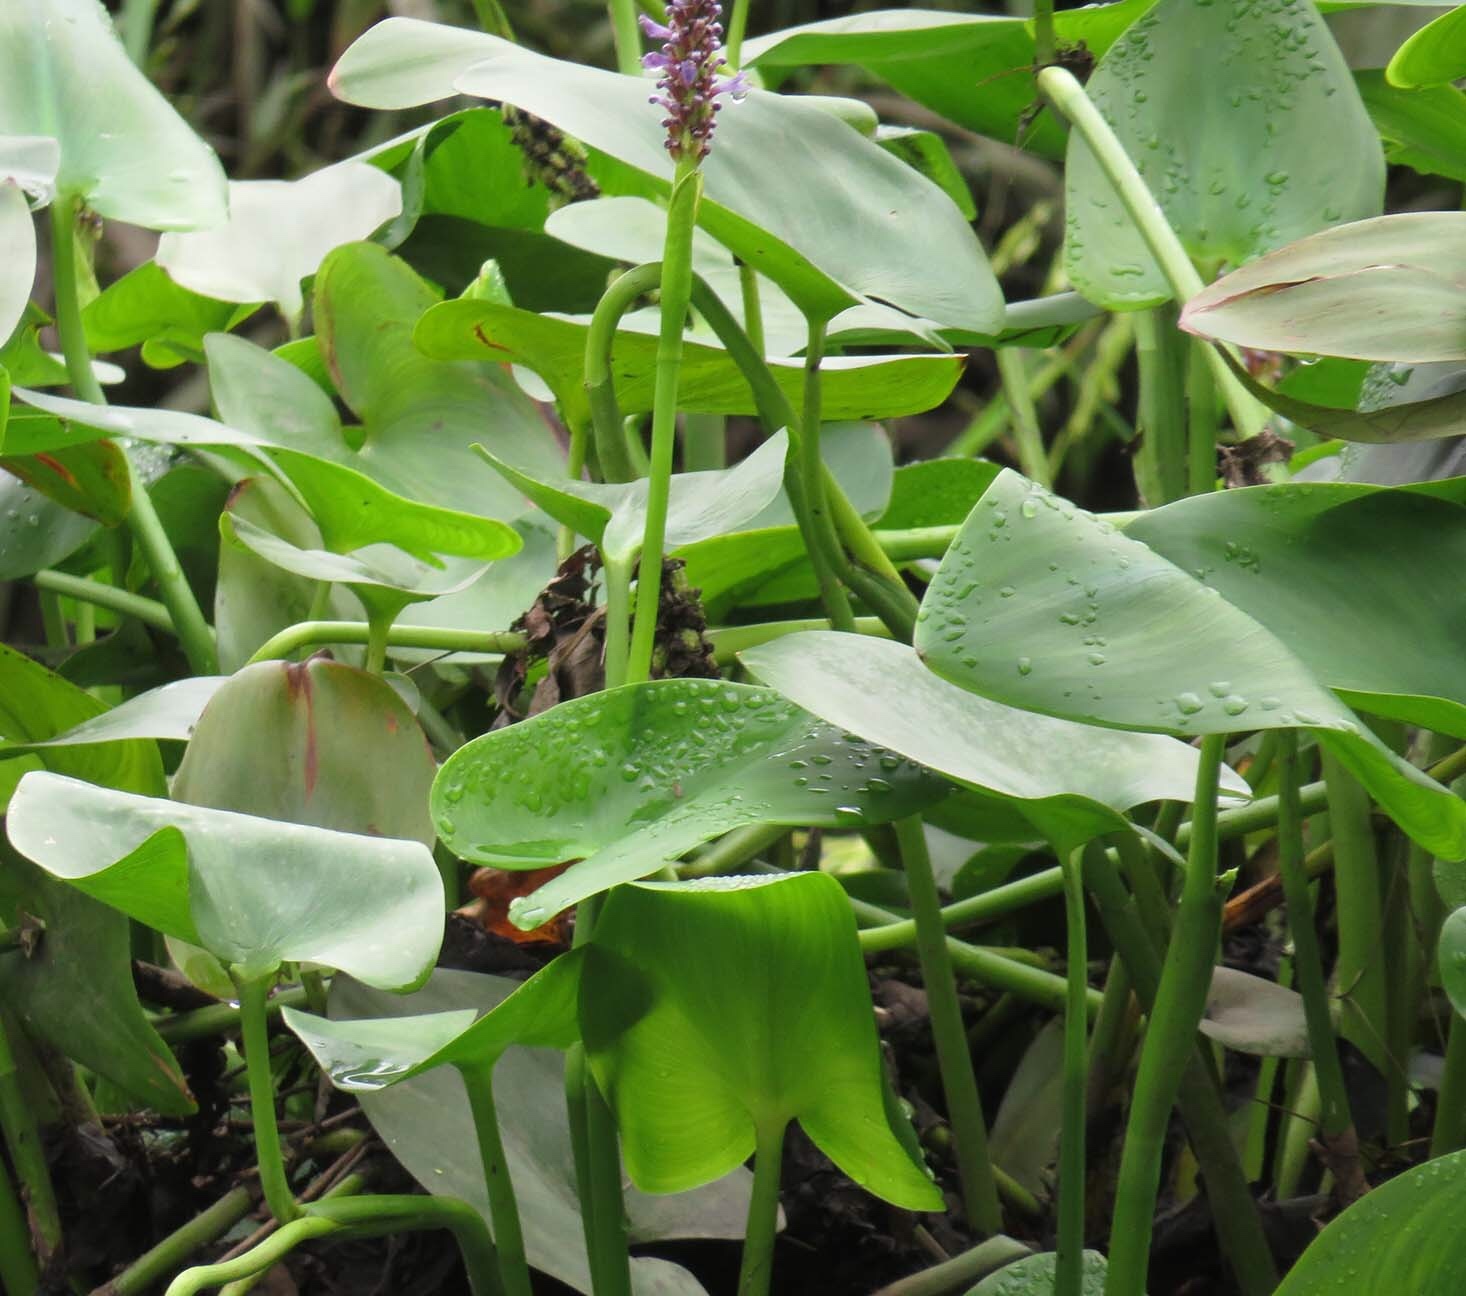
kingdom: Plantae
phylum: Tracheophyta
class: Liliopsida
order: Commelinales
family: Pontederiaceae
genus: Pontederia
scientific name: Pontederia cordata
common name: Pickerelweed
